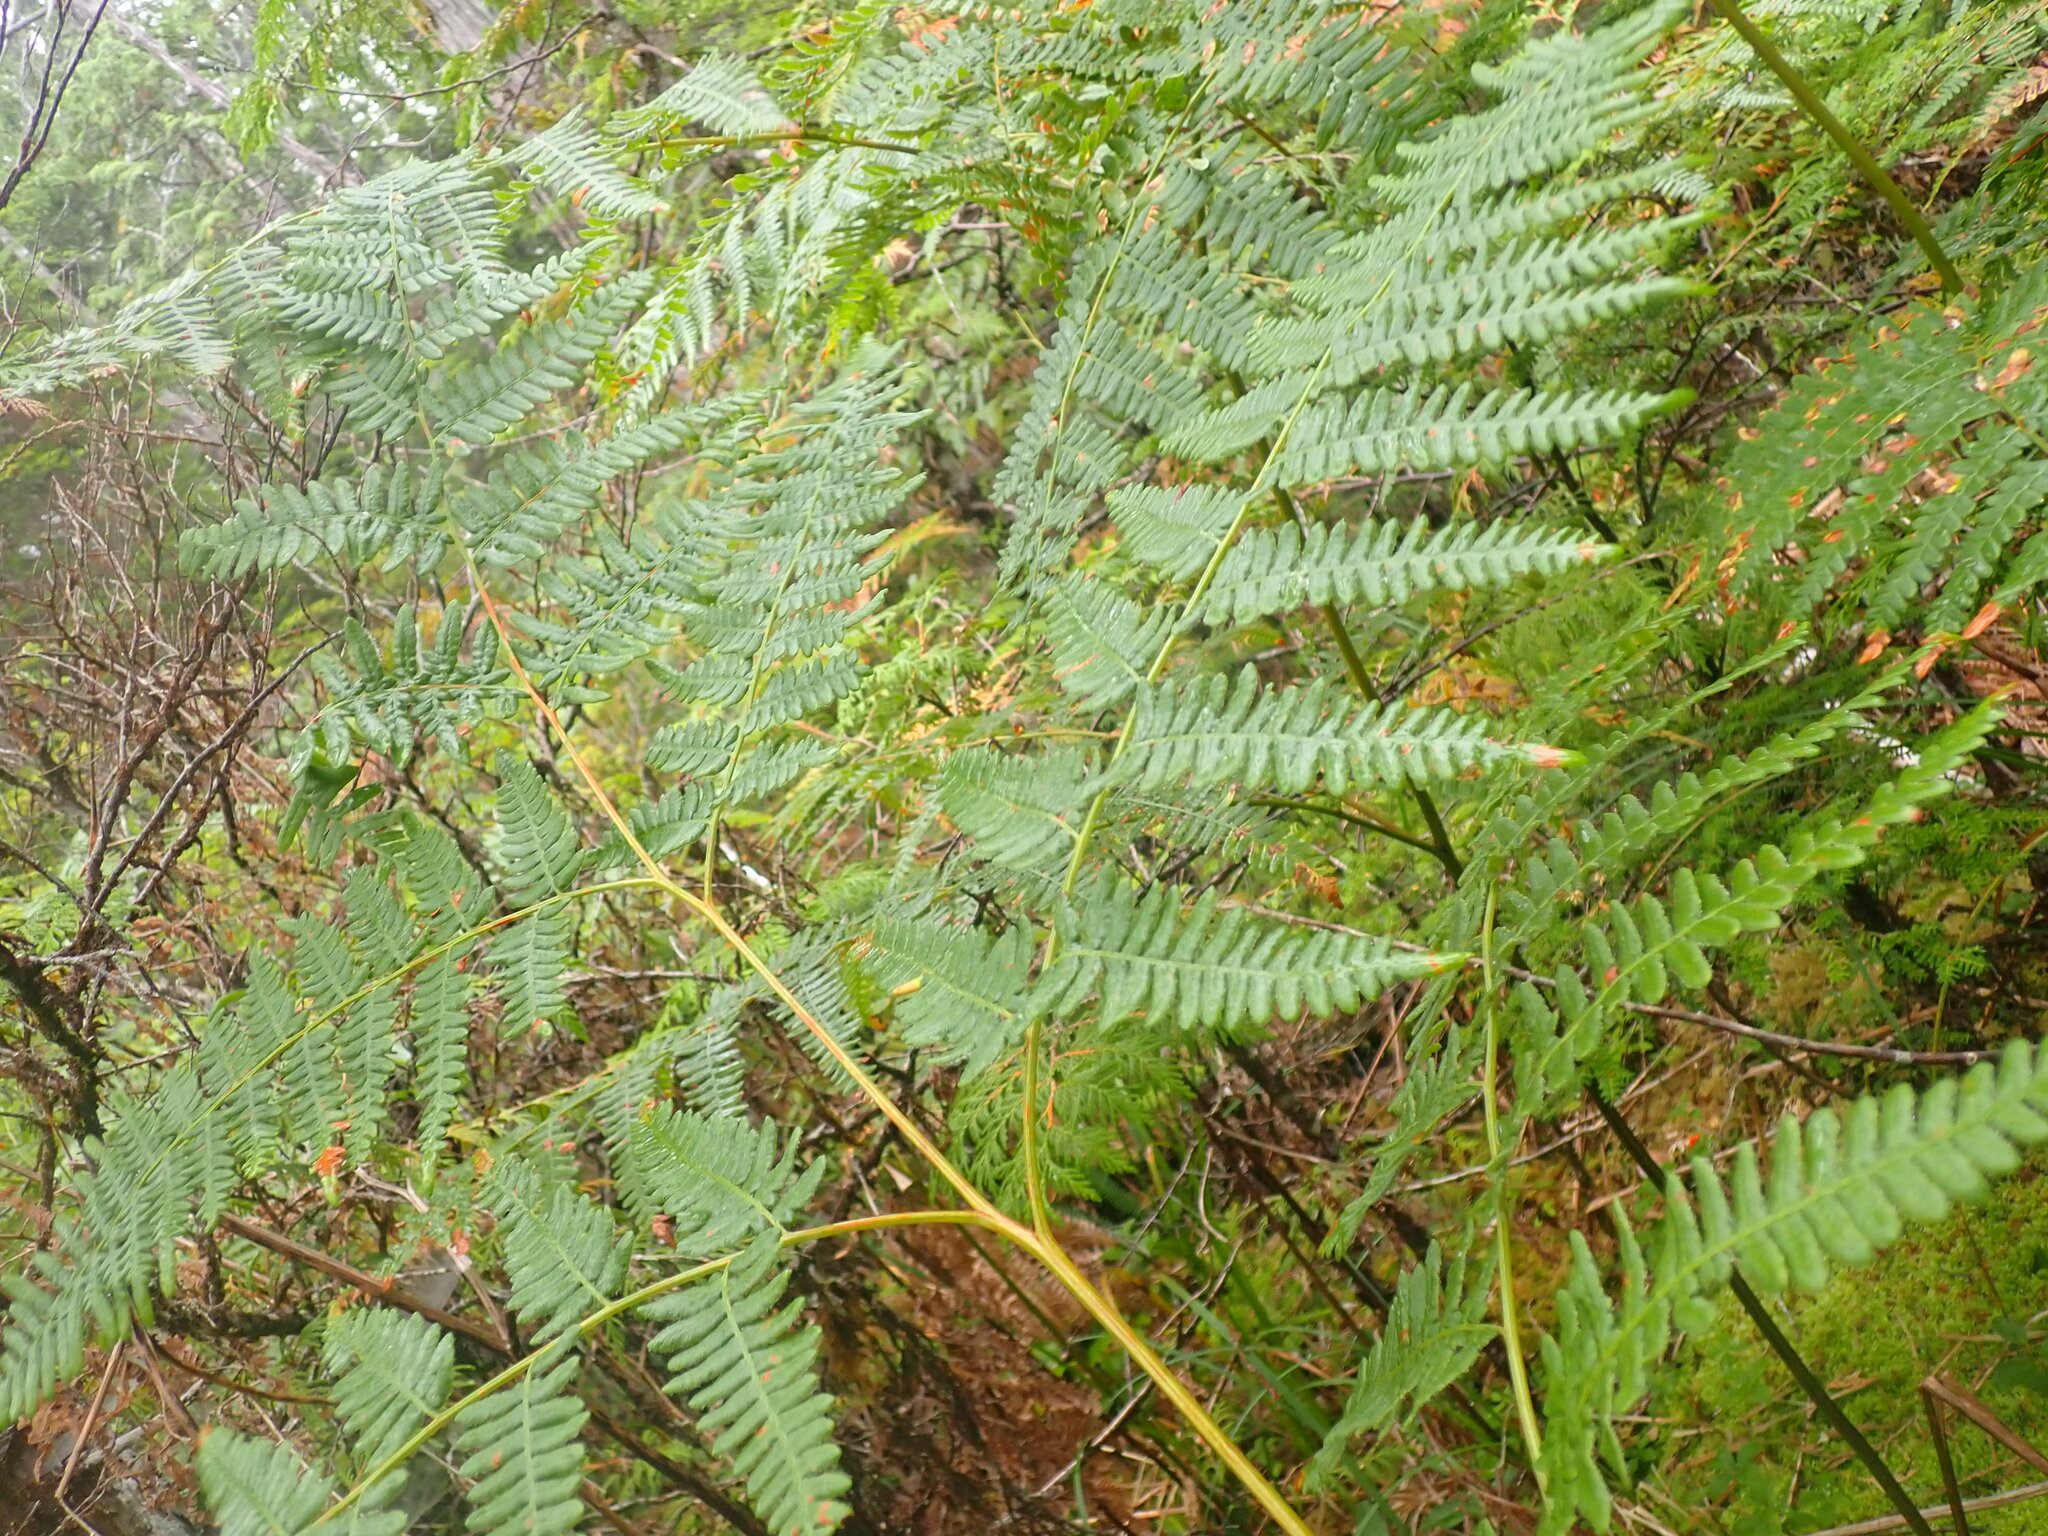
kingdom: Plantae
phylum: Tracheophyta
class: Polypodiopsida
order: Polypodiales
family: Dennstaedtiaceae
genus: Pteridium
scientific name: Pteridium aquilinum
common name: Bracken
